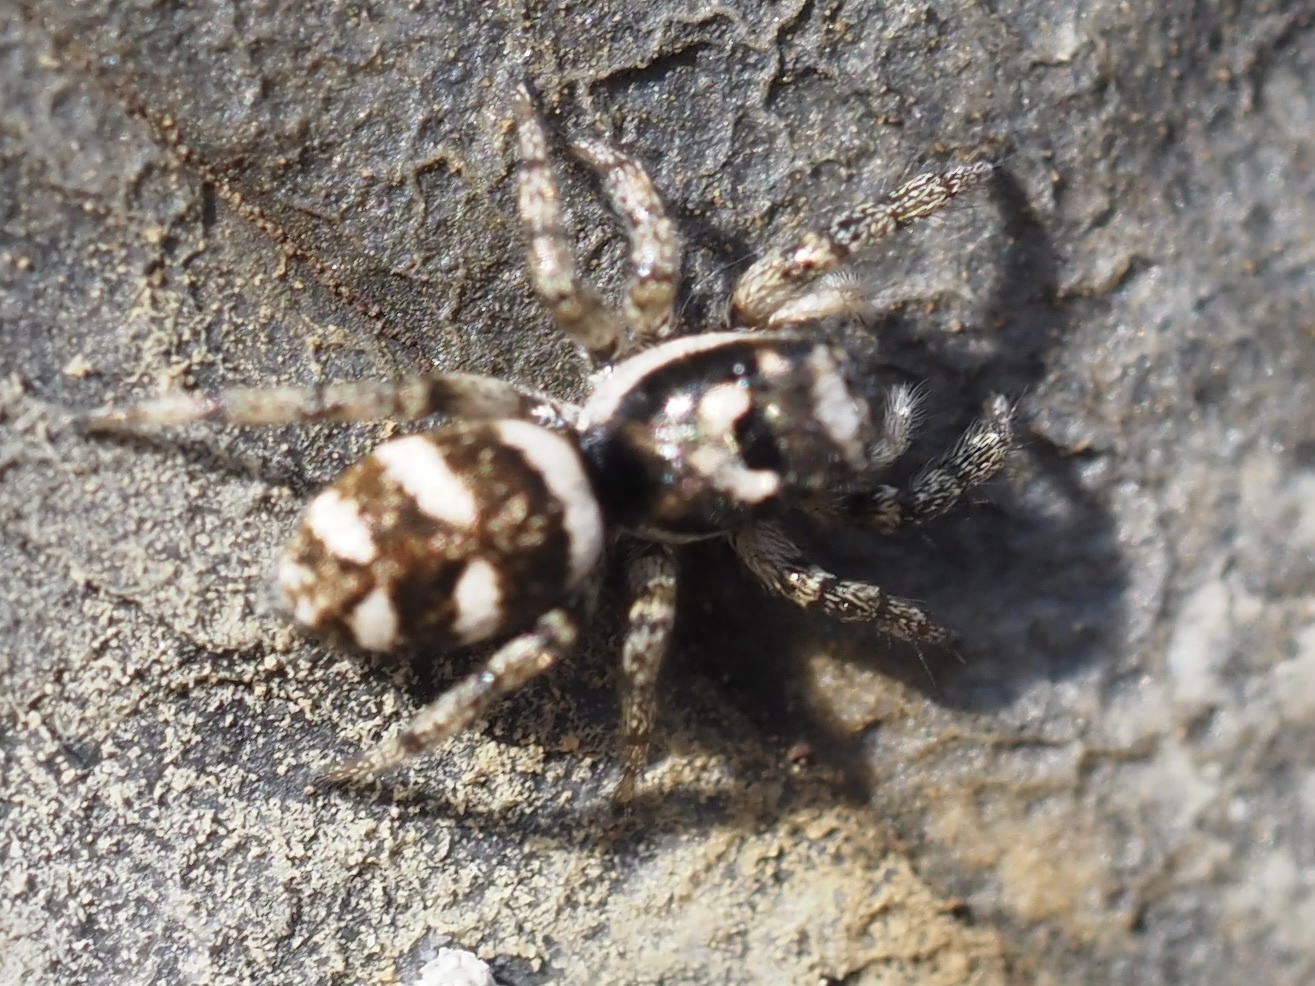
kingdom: Animalia
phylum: Arthropoda
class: Arachnida
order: Araneae
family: Salticidae
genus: Salticus
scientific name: Salticus scenicus
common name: Zebra jumper
